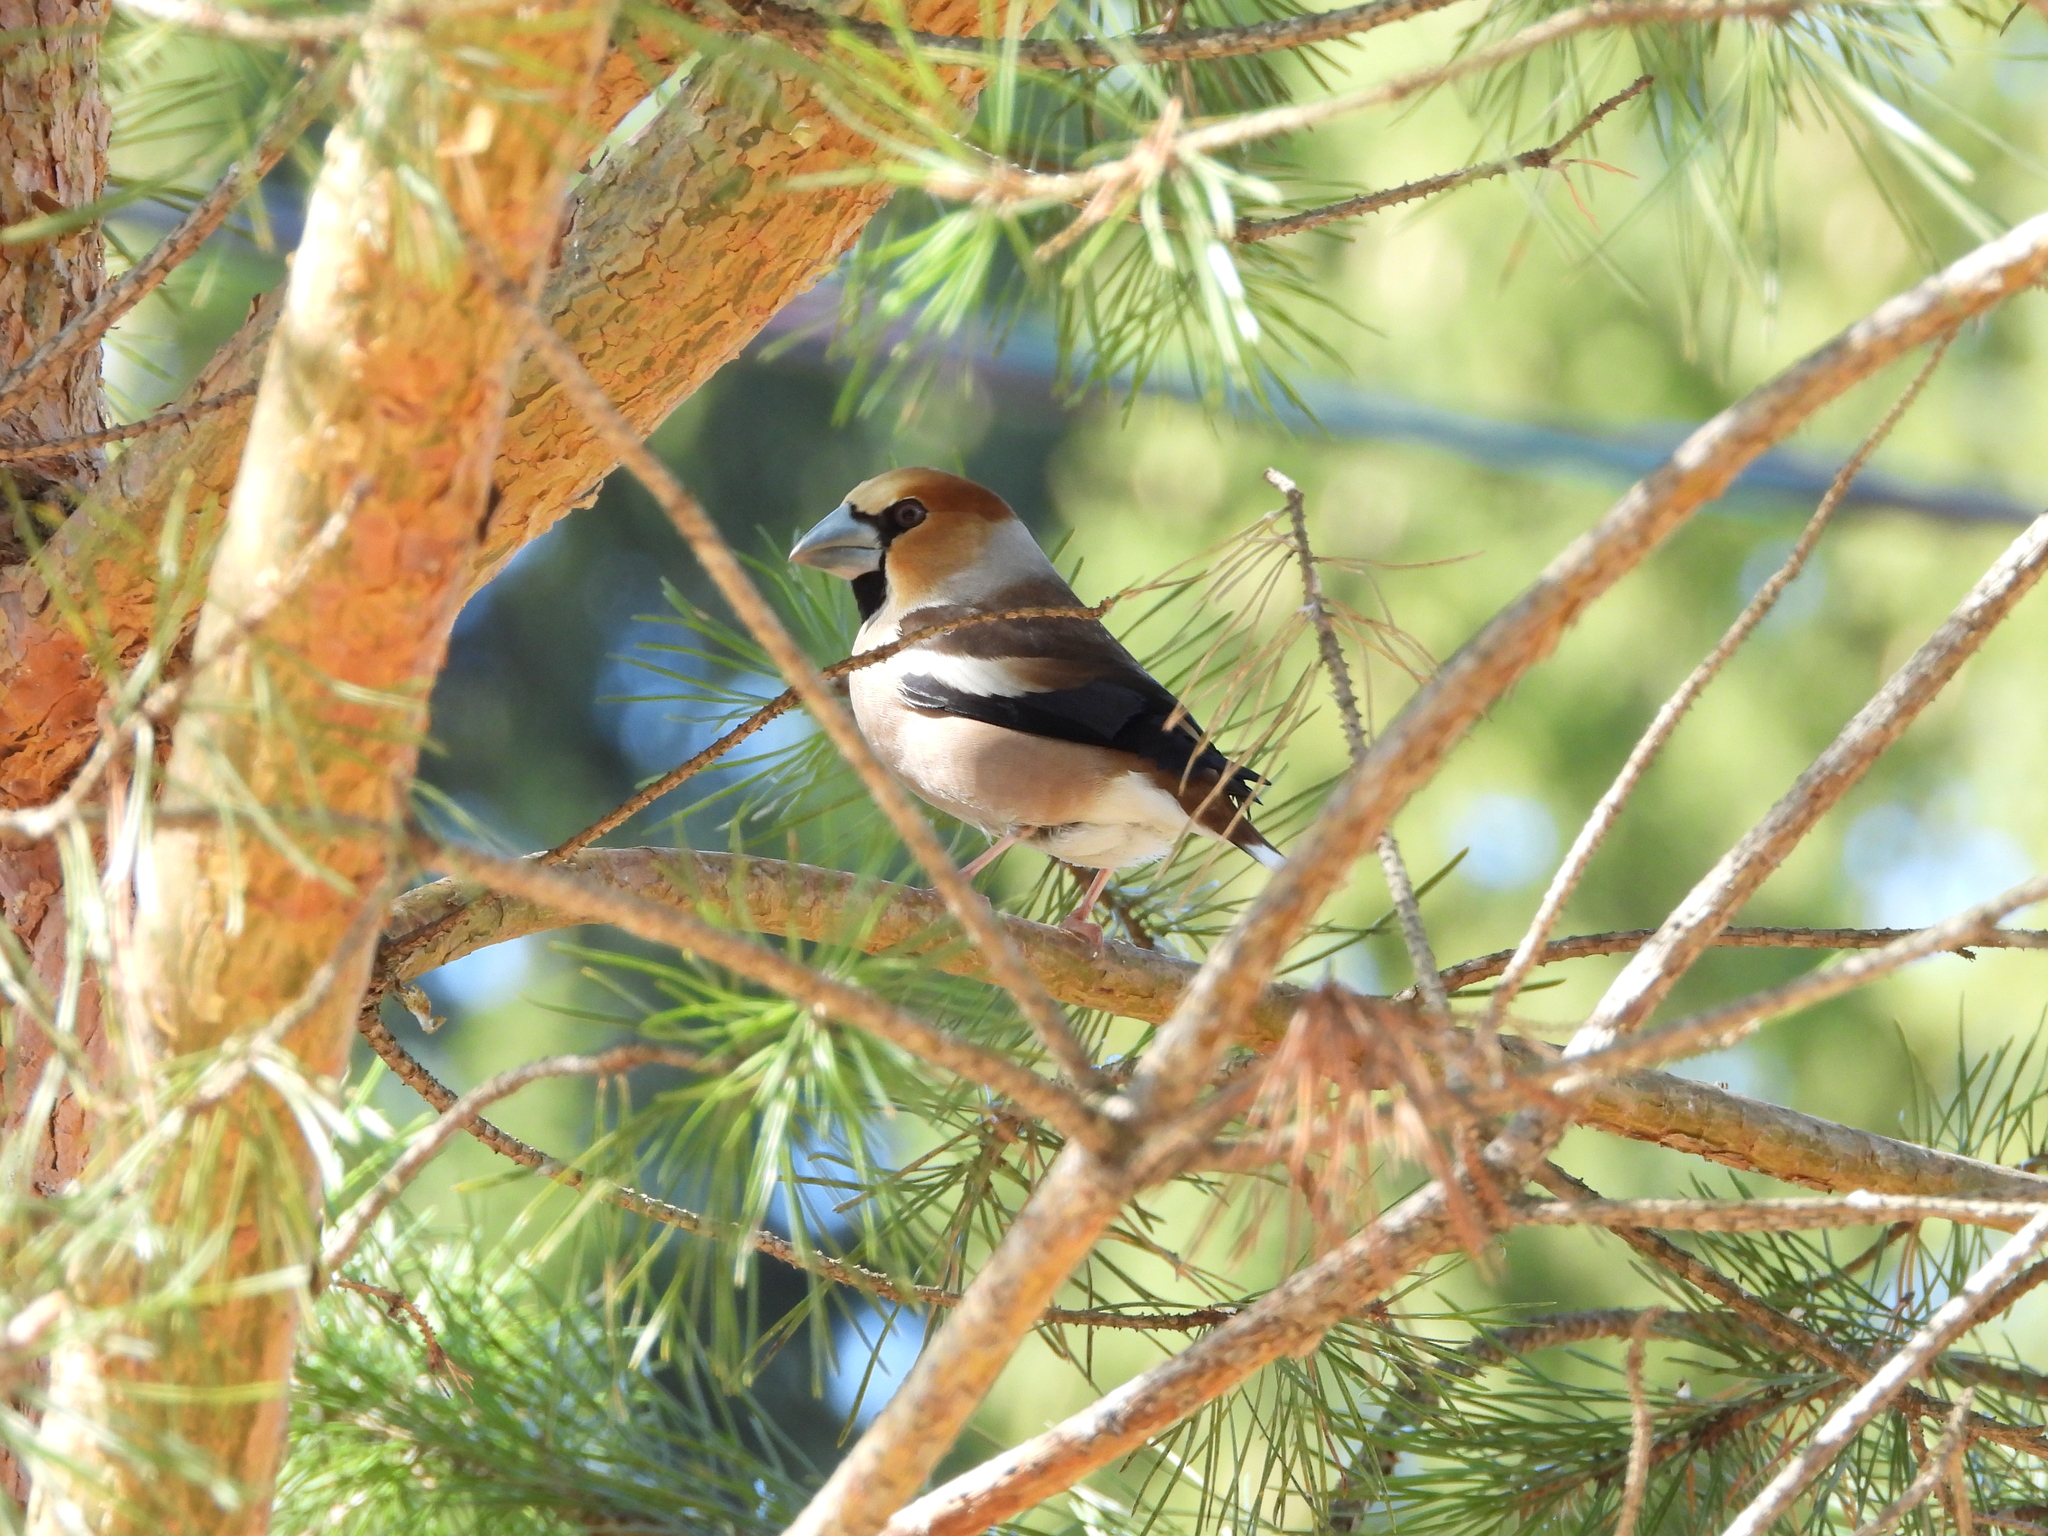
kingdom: Animalia
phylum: Chordata
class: Aves
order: Passeriformes
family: Fringillidae
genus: Coccothraustes
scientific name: Coccothraustes coccothraustes
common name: Hawfinch
